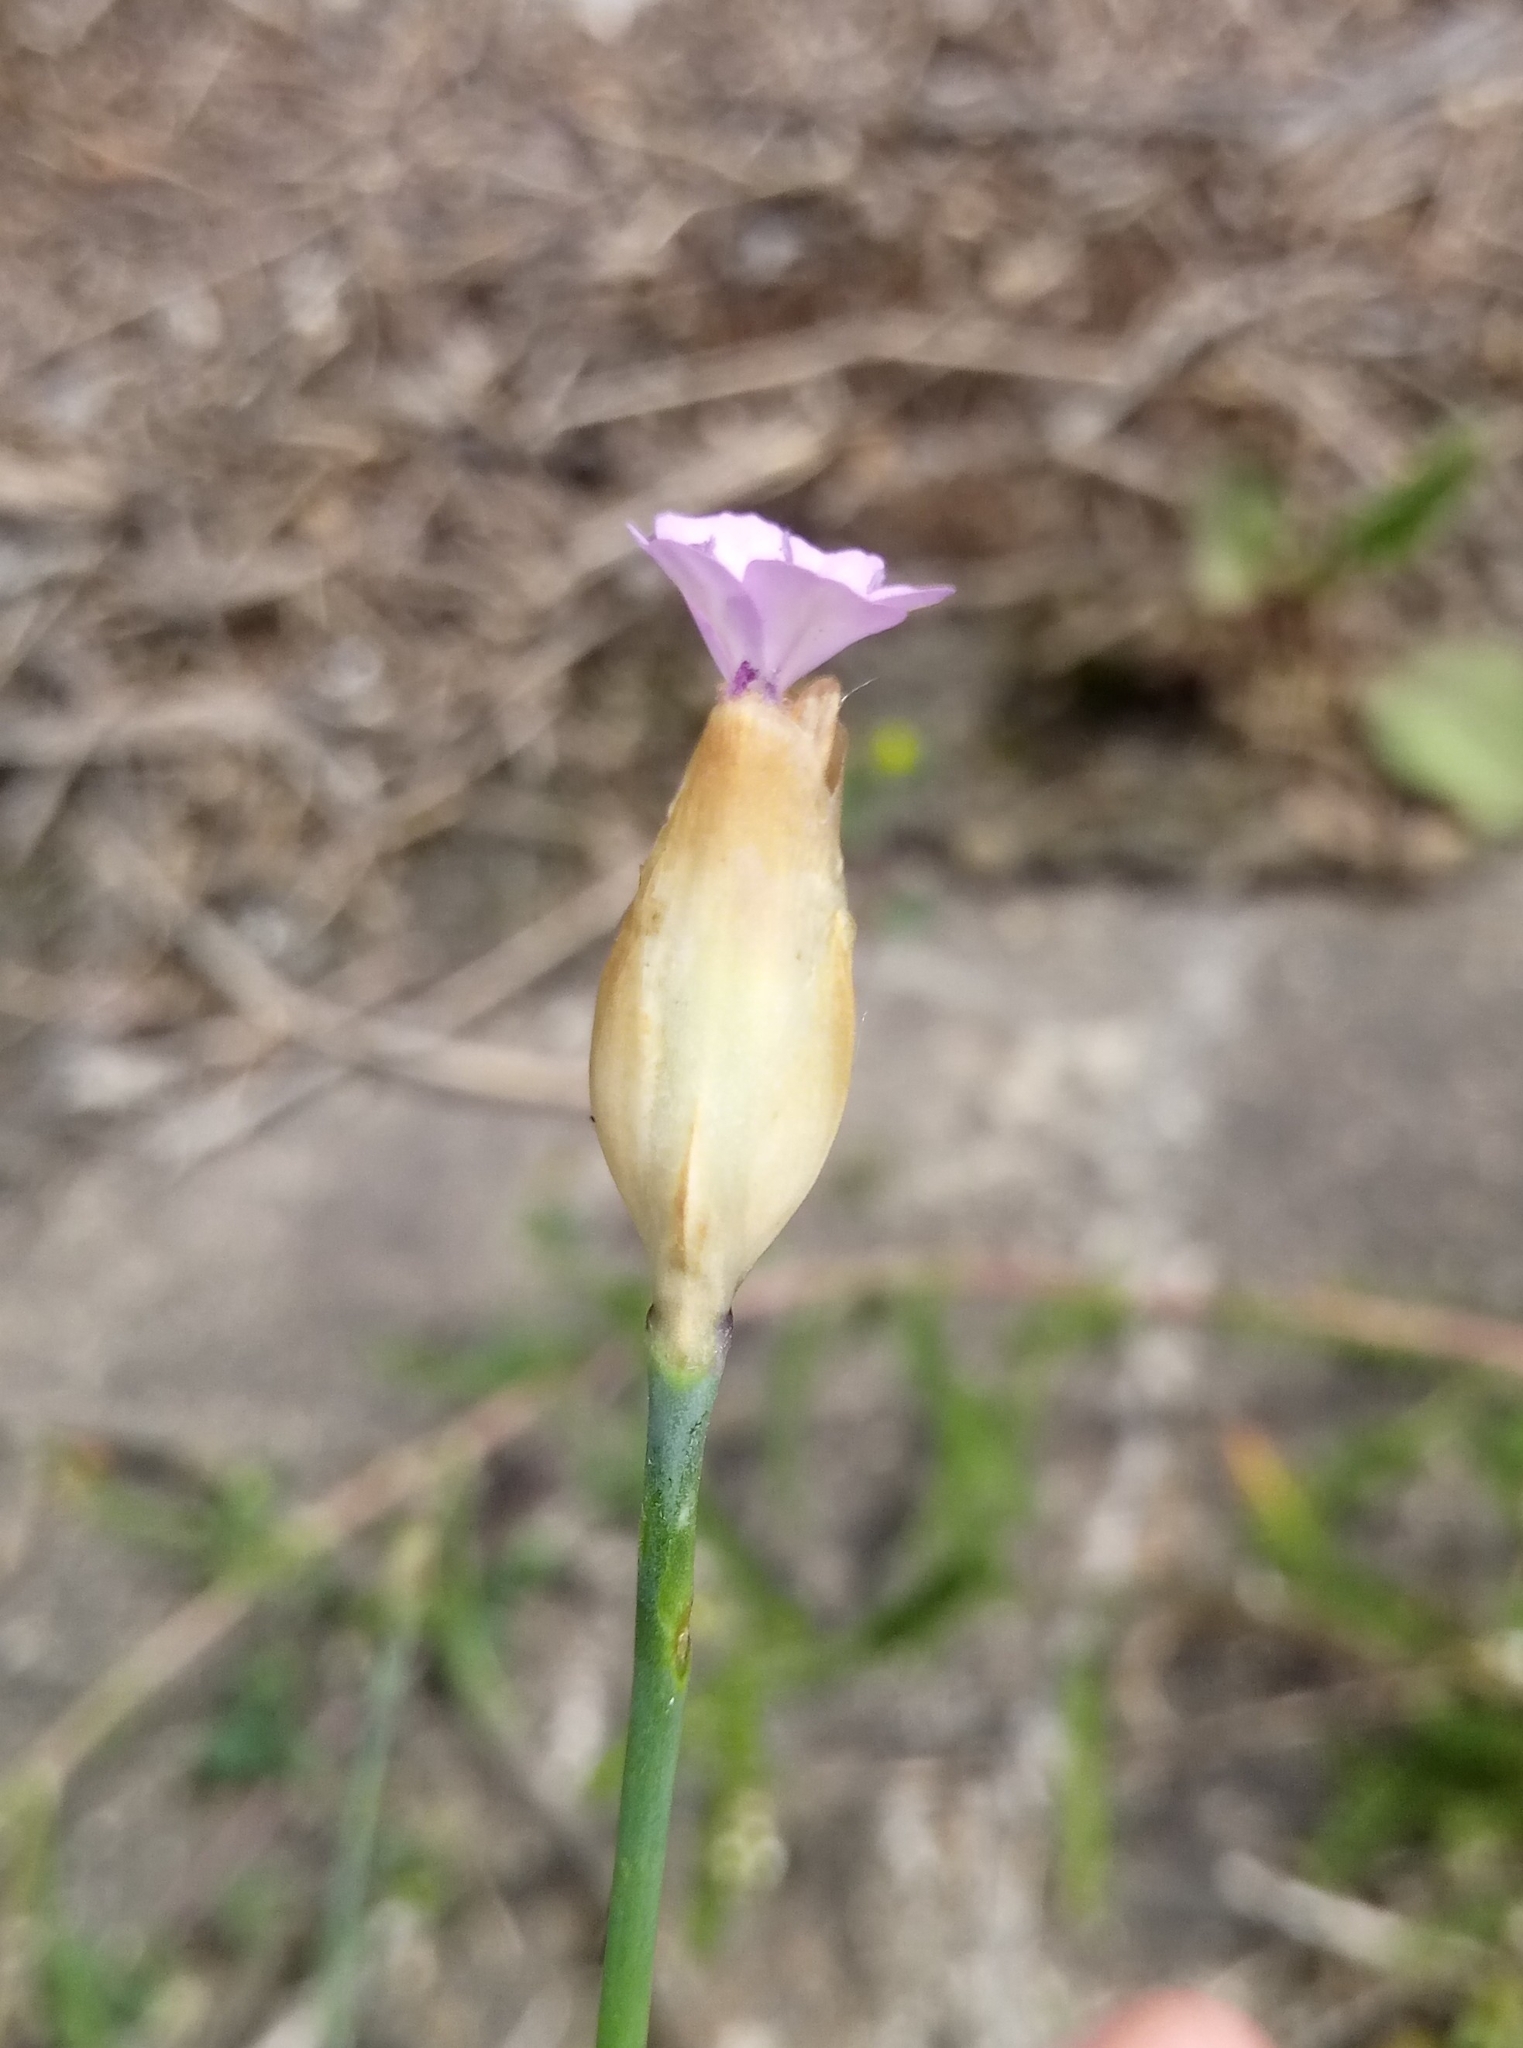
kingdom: Plantae
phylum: Tracheophyta
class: Magnoliopsida
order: Caryophyllales
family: Caryophyllaceae
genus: Petrorhagia
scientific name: Petrorhagia prolifera
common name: Proliferous pink
